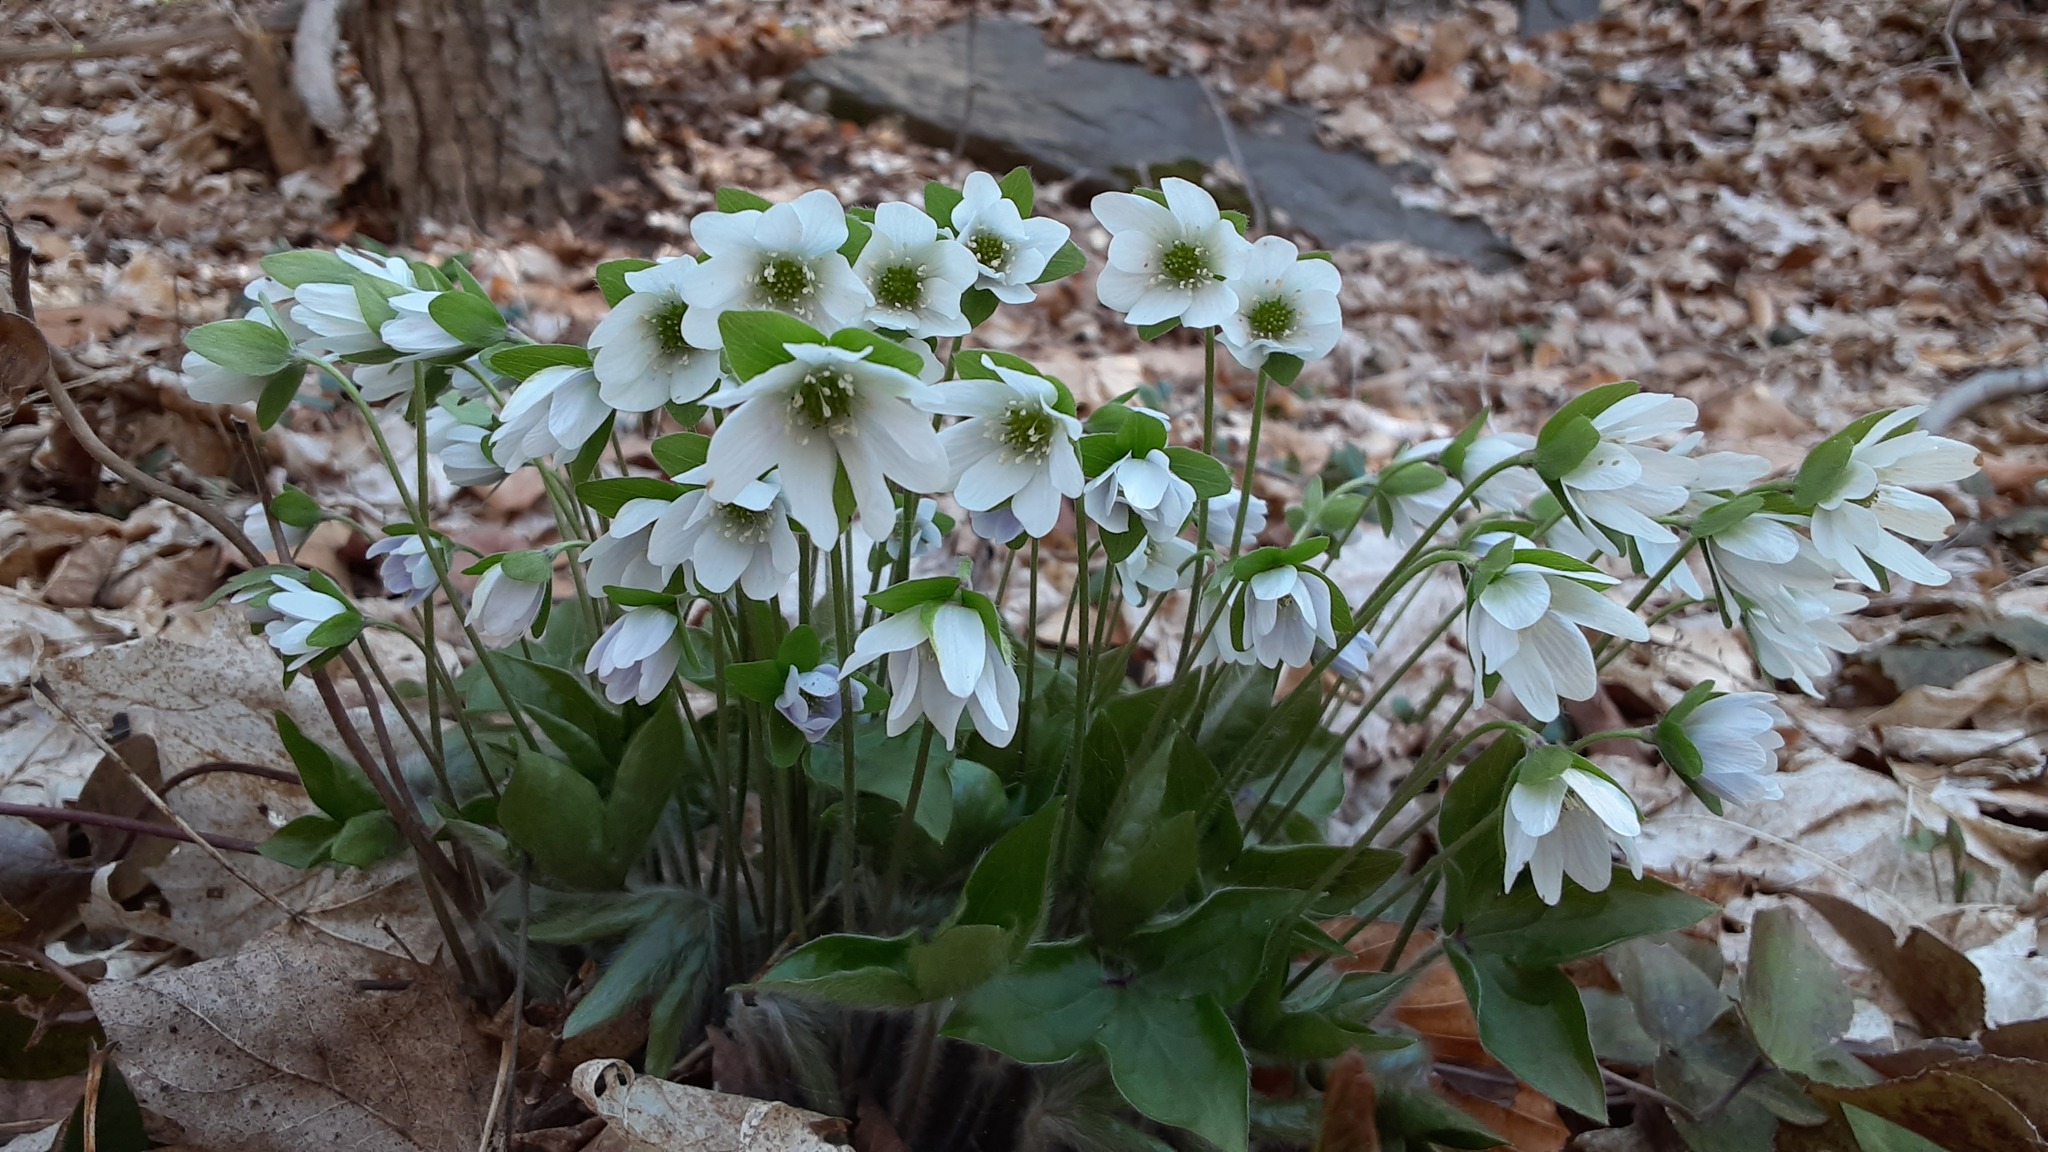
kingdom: Plantae
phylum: Tracheophyta
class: Magnoliopsida
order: Ranunculales
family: Ranunculaceae
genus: Hepatica
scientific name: Hepatica acutiloba
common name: Sharp-lobed hepatica
